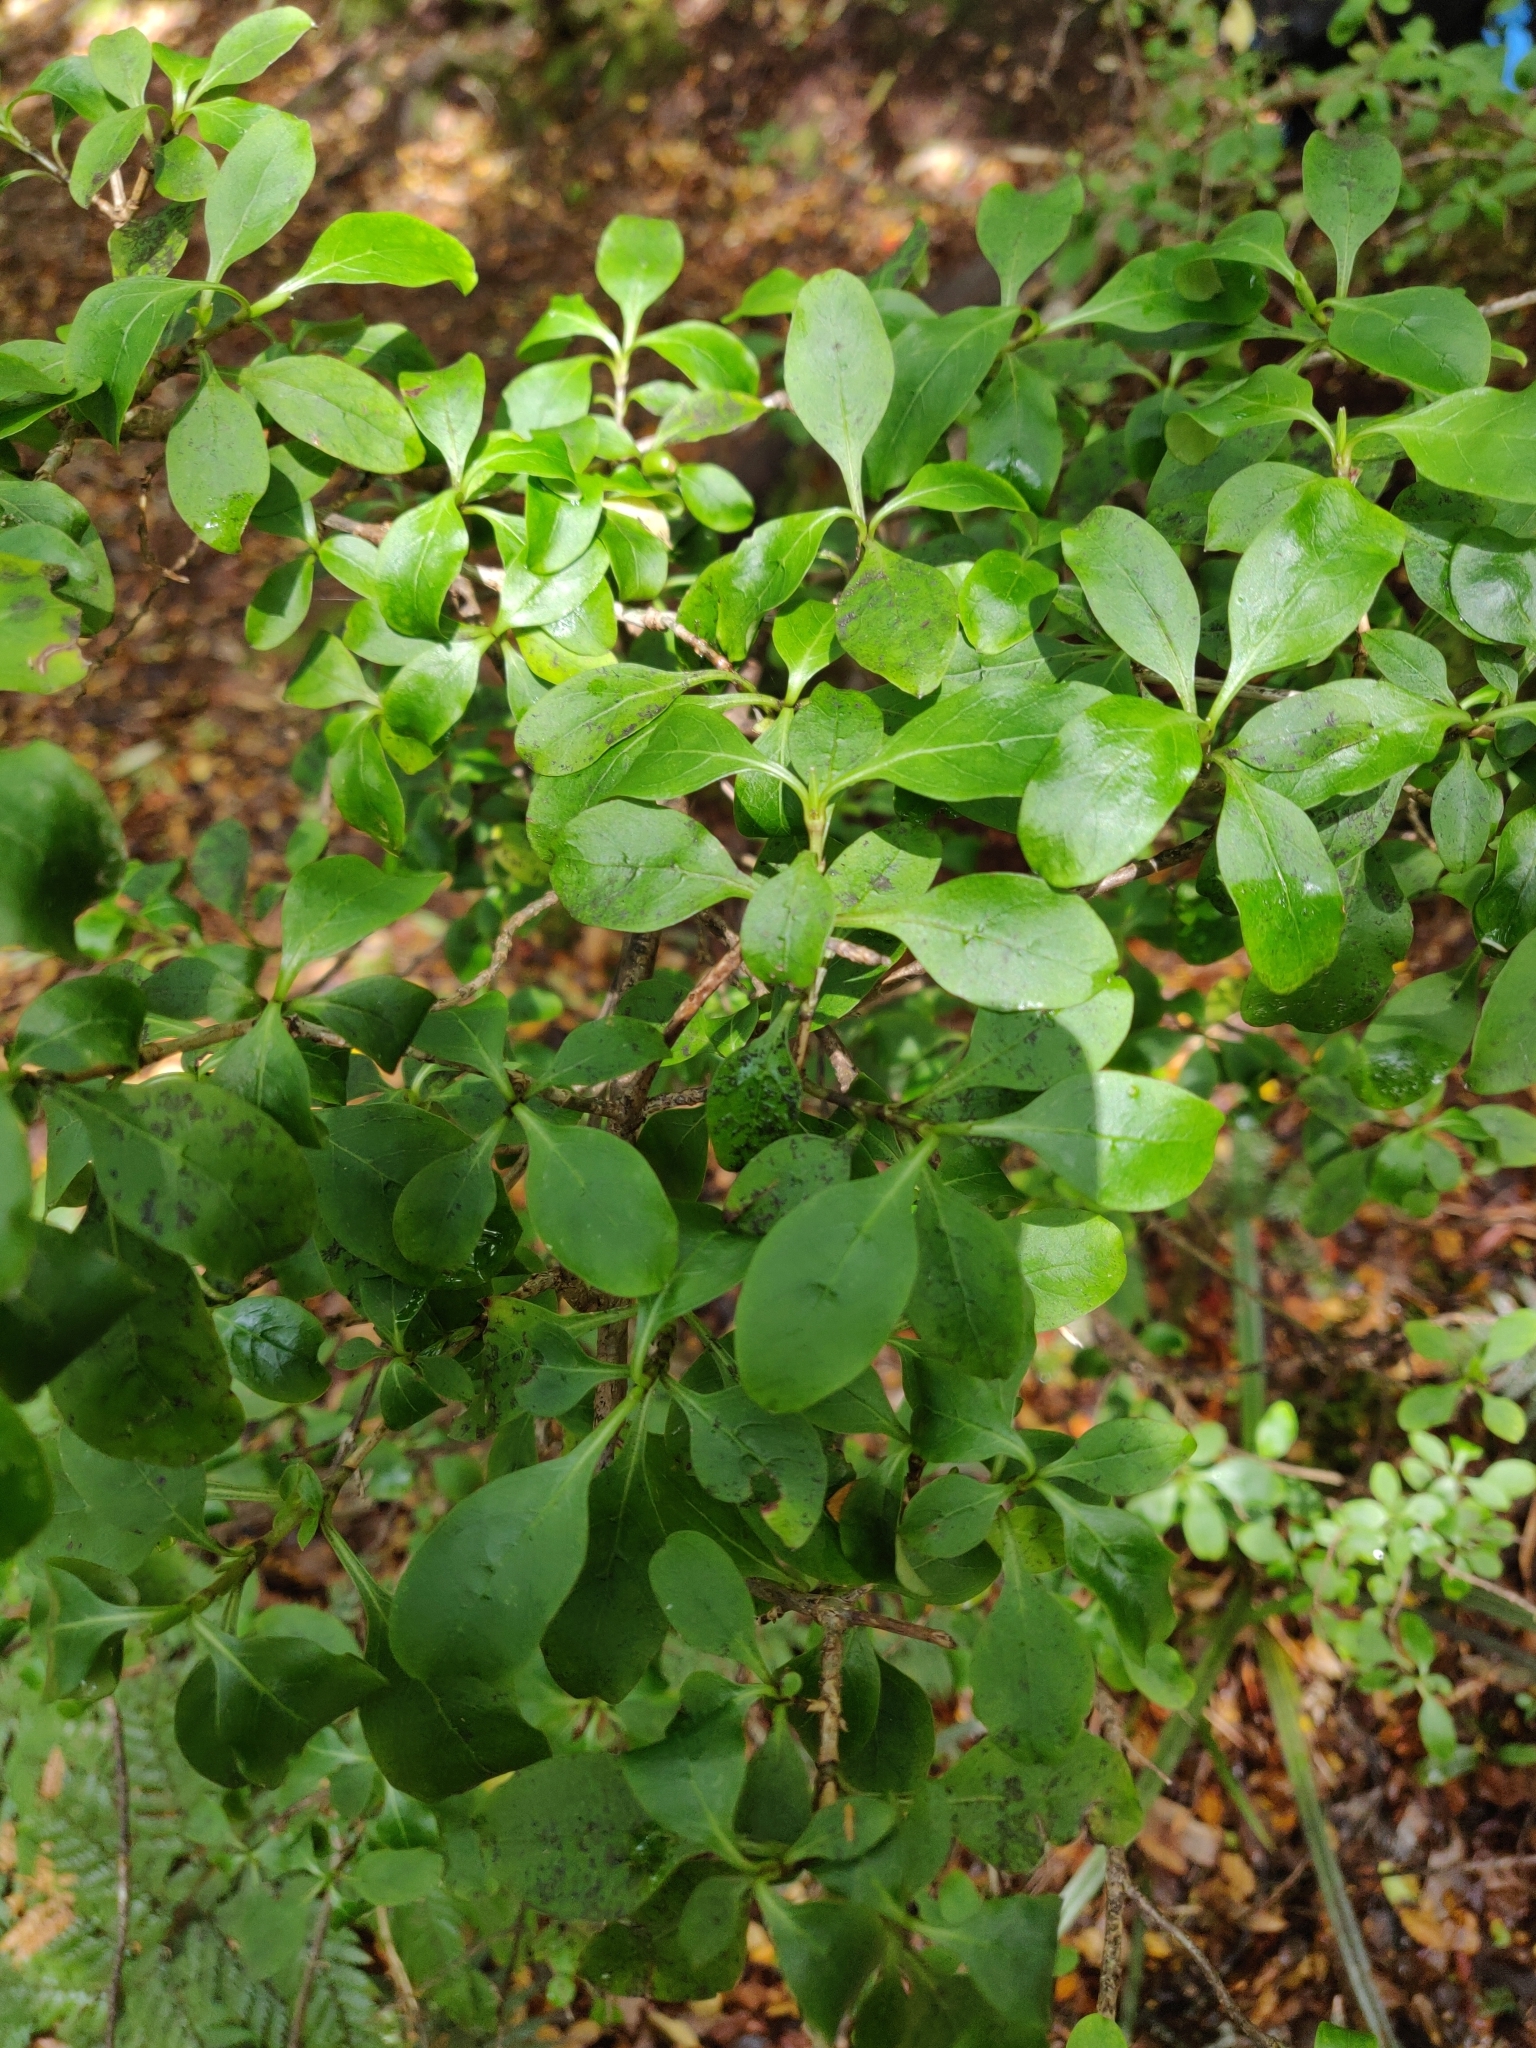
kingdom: Plantae
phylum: Tracheophyta
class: Magnoliopsida
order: Gentianales
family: Rubiaceae
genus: Coprosma
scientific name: Coprosma foetidissima
